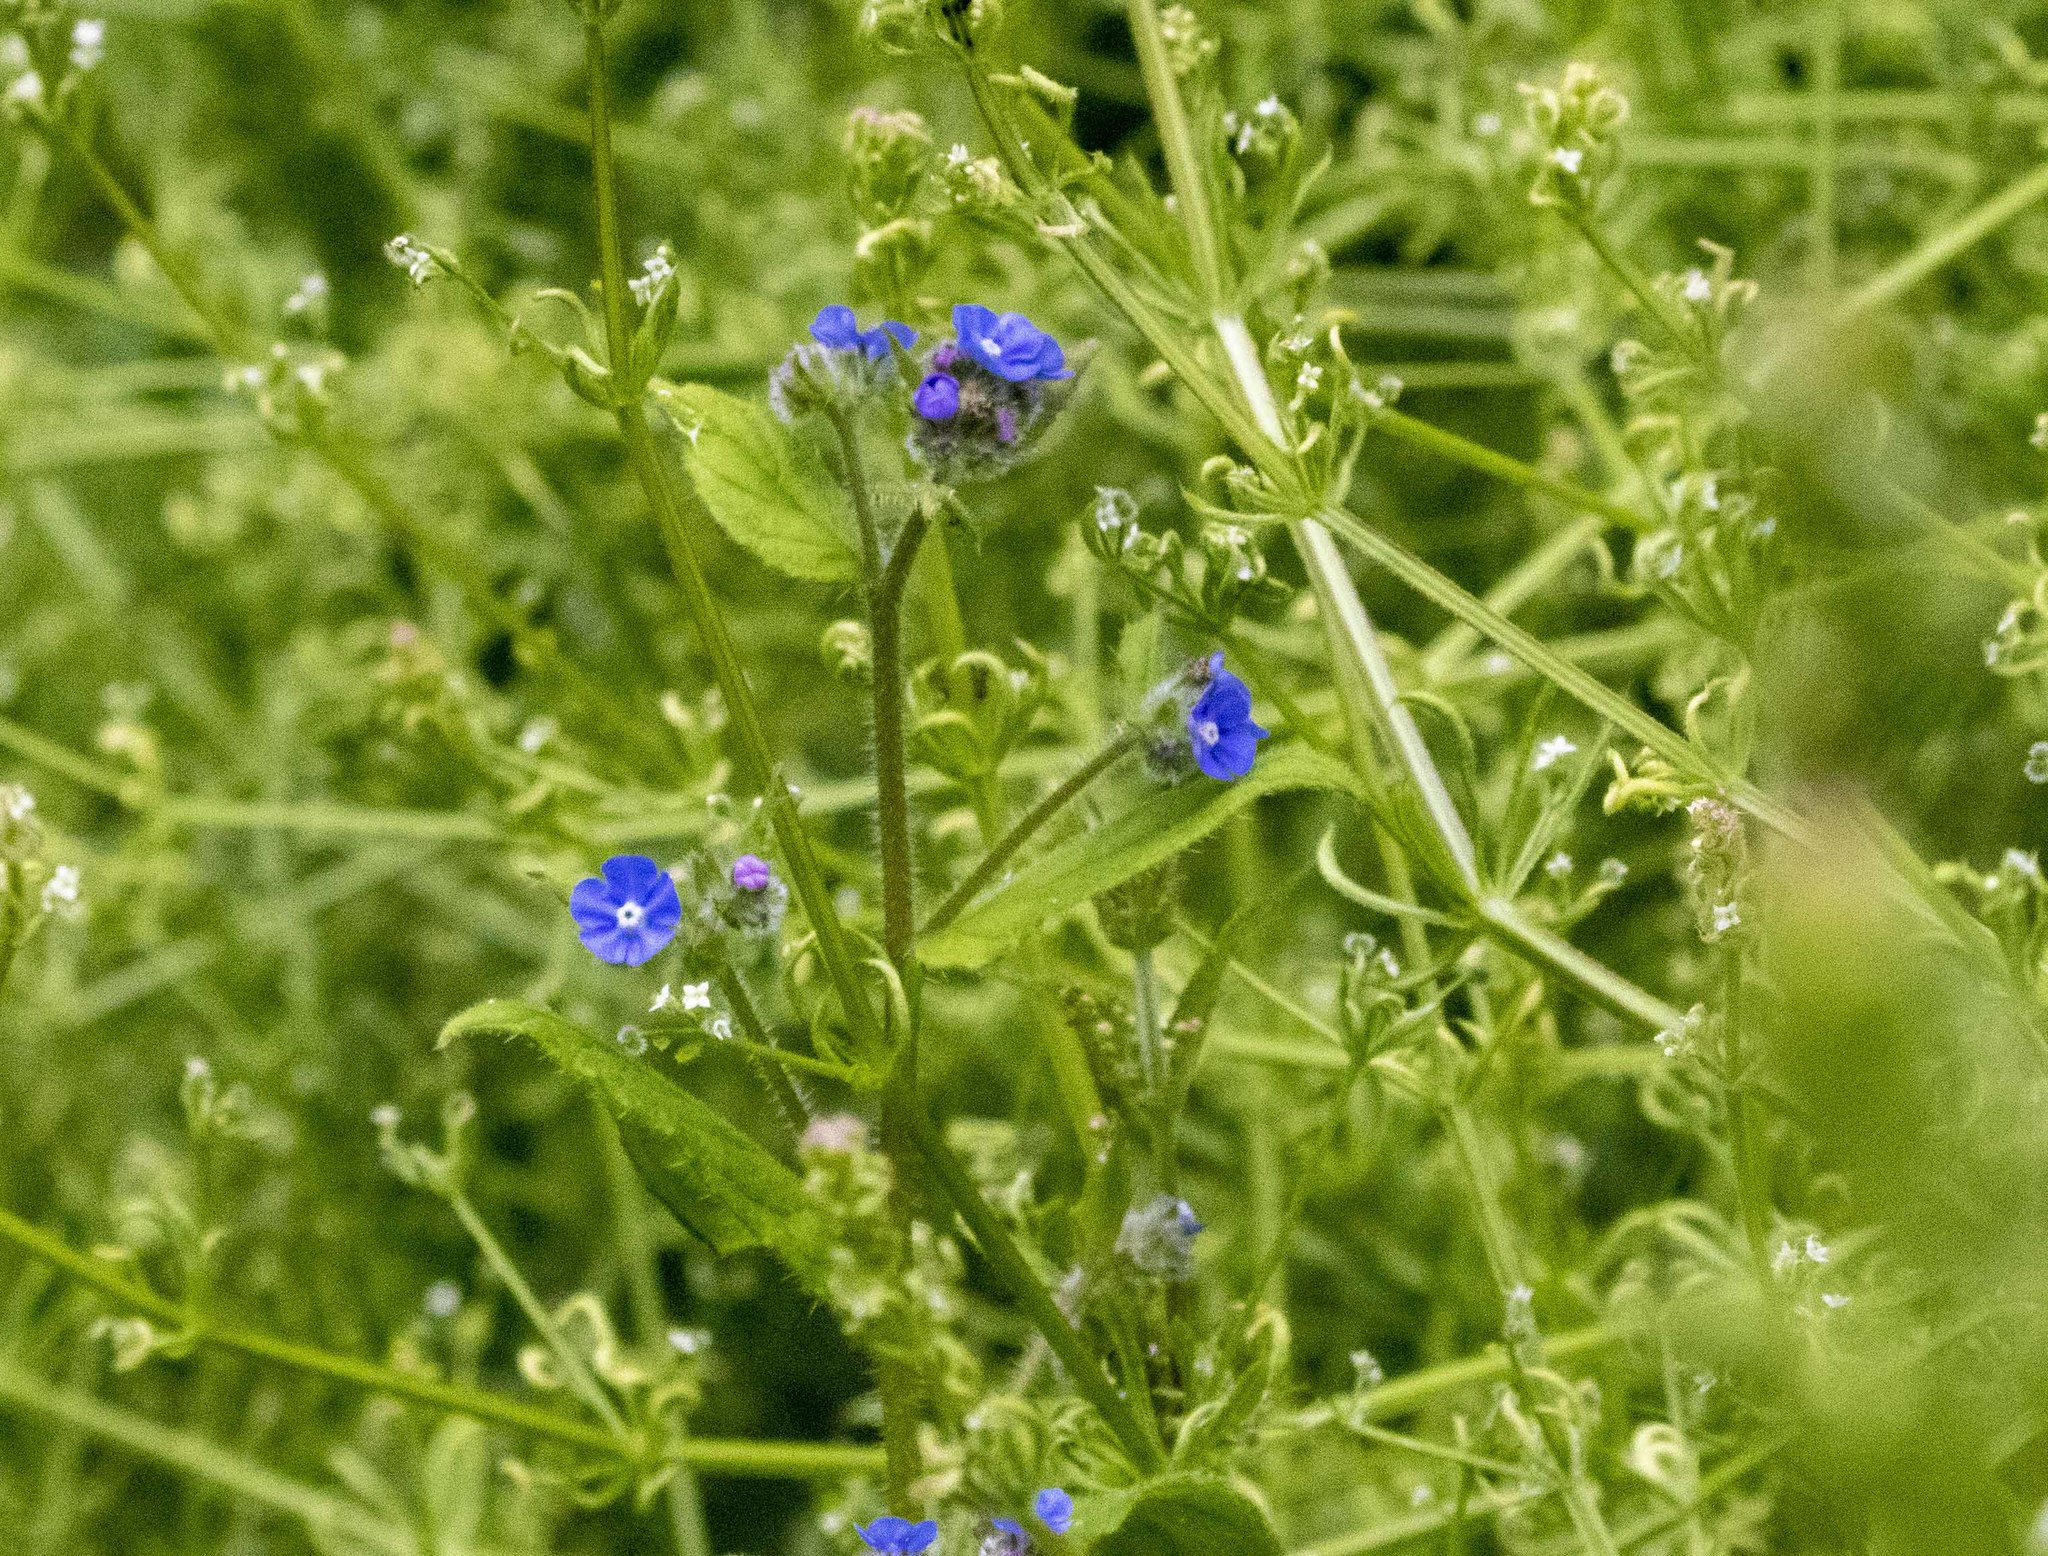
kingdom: Plantae
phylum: Tracheophyta
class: Magnoliopsida
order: Boraginales
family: Boraginaceae
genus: Pentaglottis
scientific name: Pentaglottis sempervirens
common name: Green alkanet
